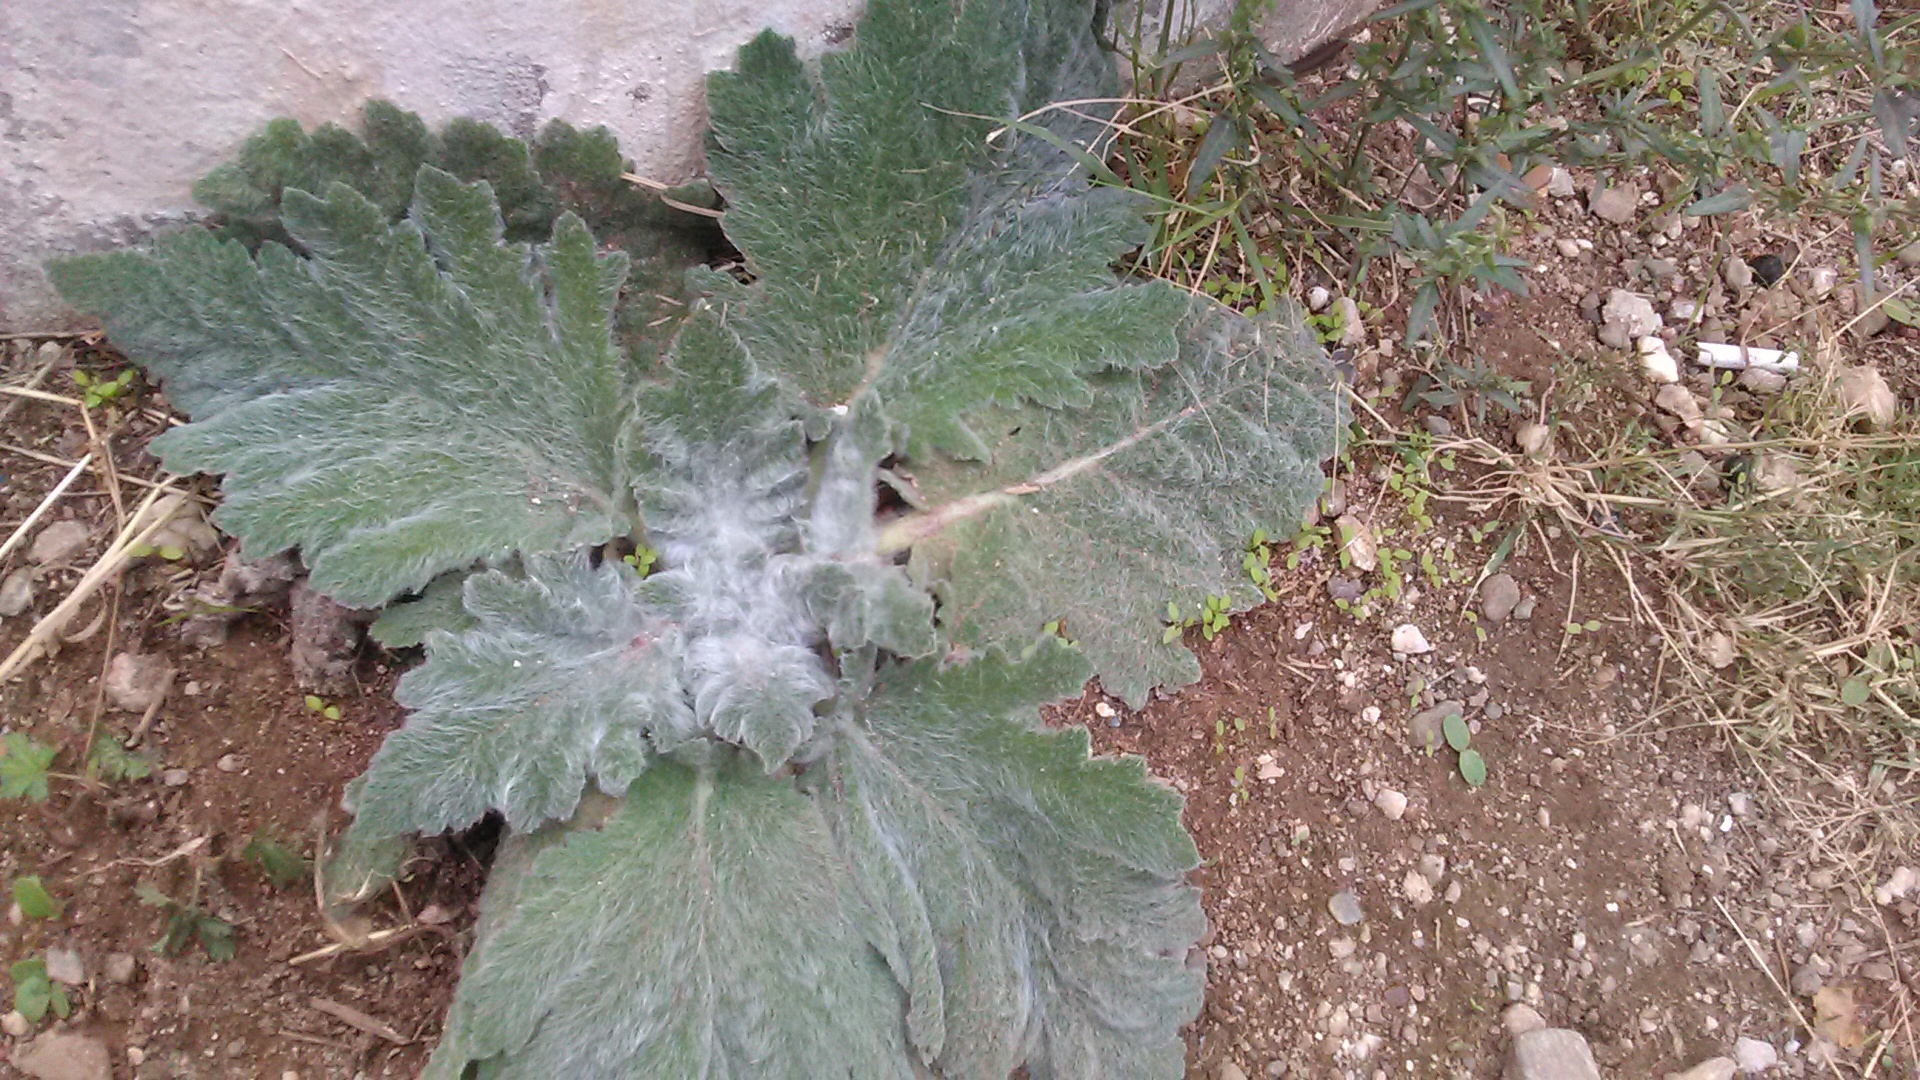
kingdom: Plantae
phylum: Tracheophyta
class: Magnoliopsida
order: Lamiales
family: Lamiaceae
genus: Salvia
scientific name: Salvia aethiopis
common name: Mediterranean sage
